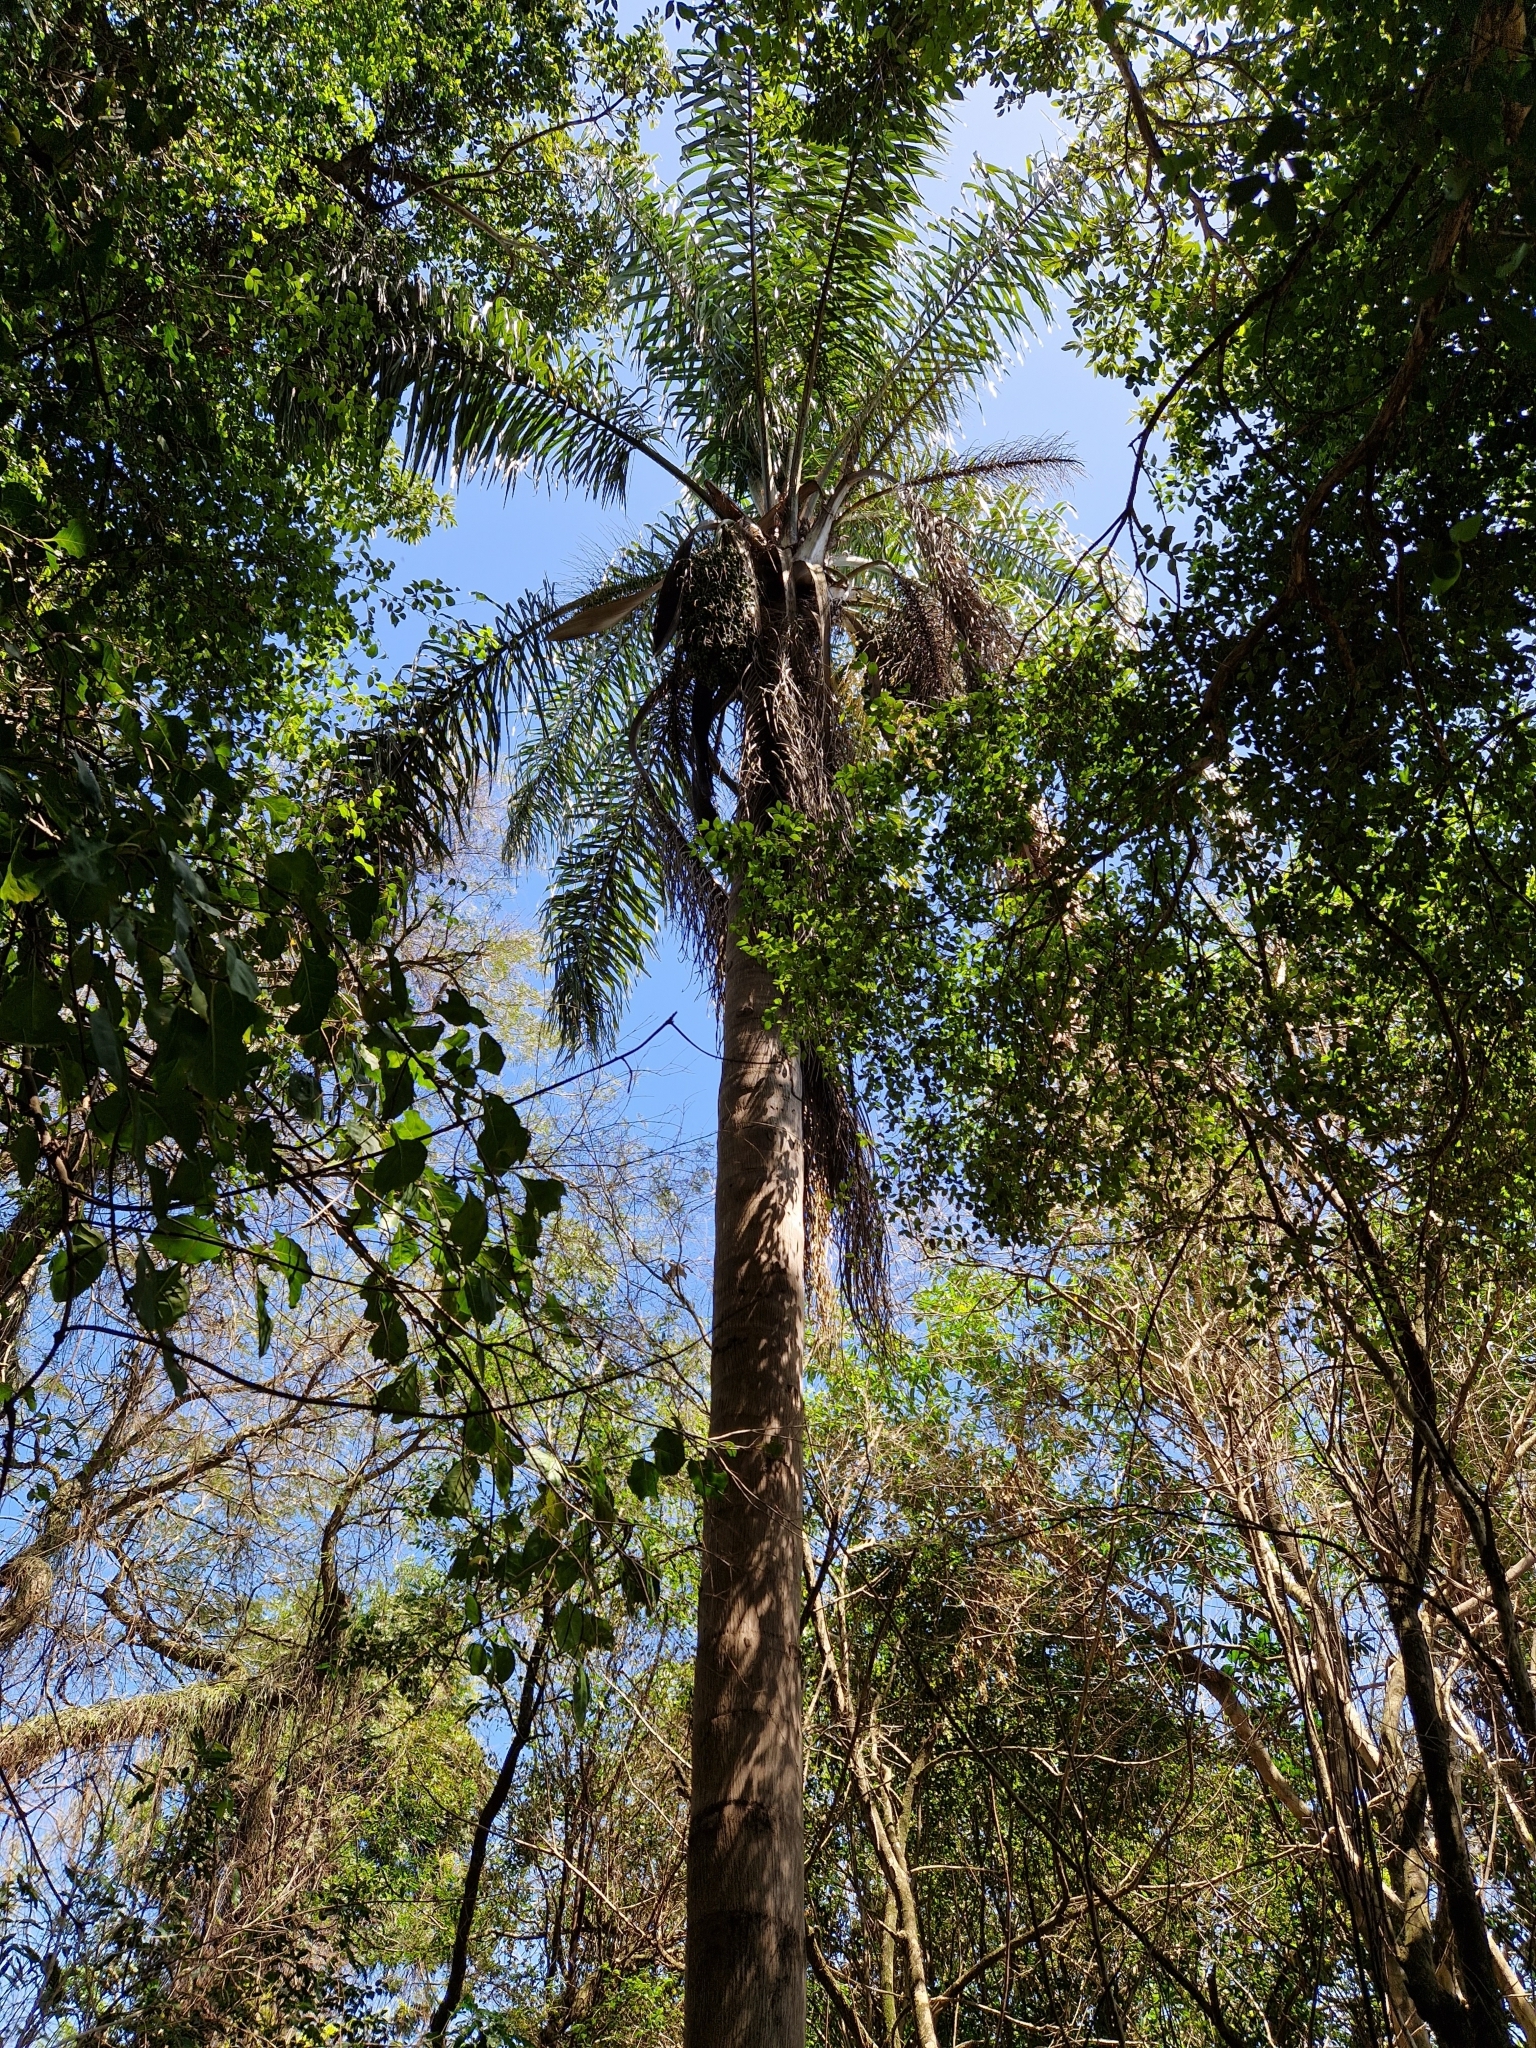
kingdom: Plantae
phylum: Tracheophyta
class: Liliopsida
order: Arecales
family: Arecaceae
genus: Syagrus
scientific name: Syagrus romanzoffiana
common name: Queen palm
